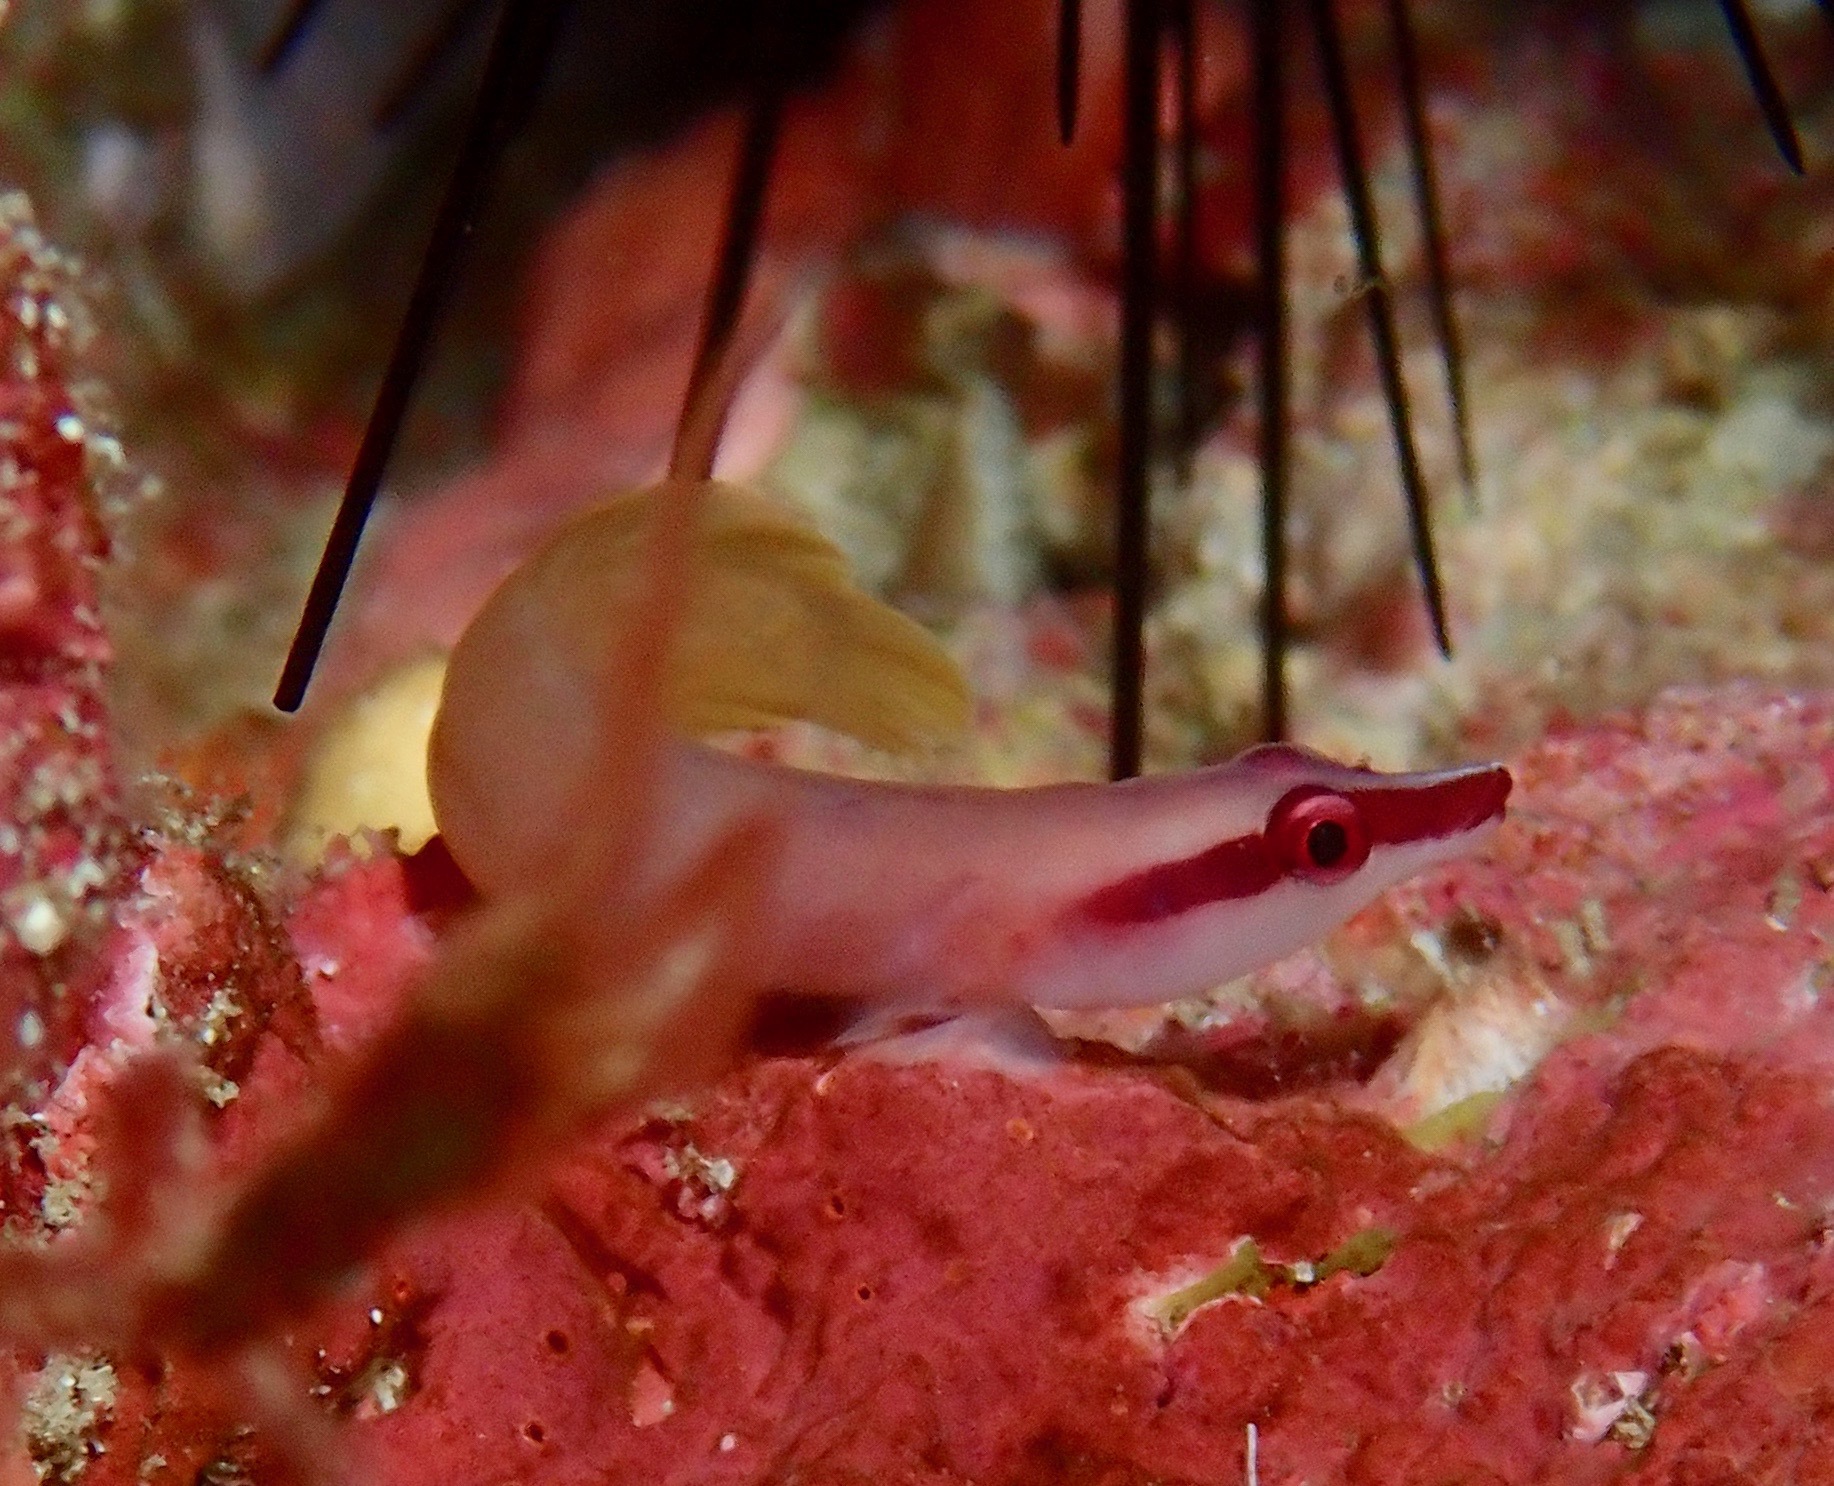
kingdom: Animalia
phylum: Chordata
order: Gobiesociformes
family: Gobiesocidae
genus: Lepadichthys
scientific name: Lepadichthys frenatus
